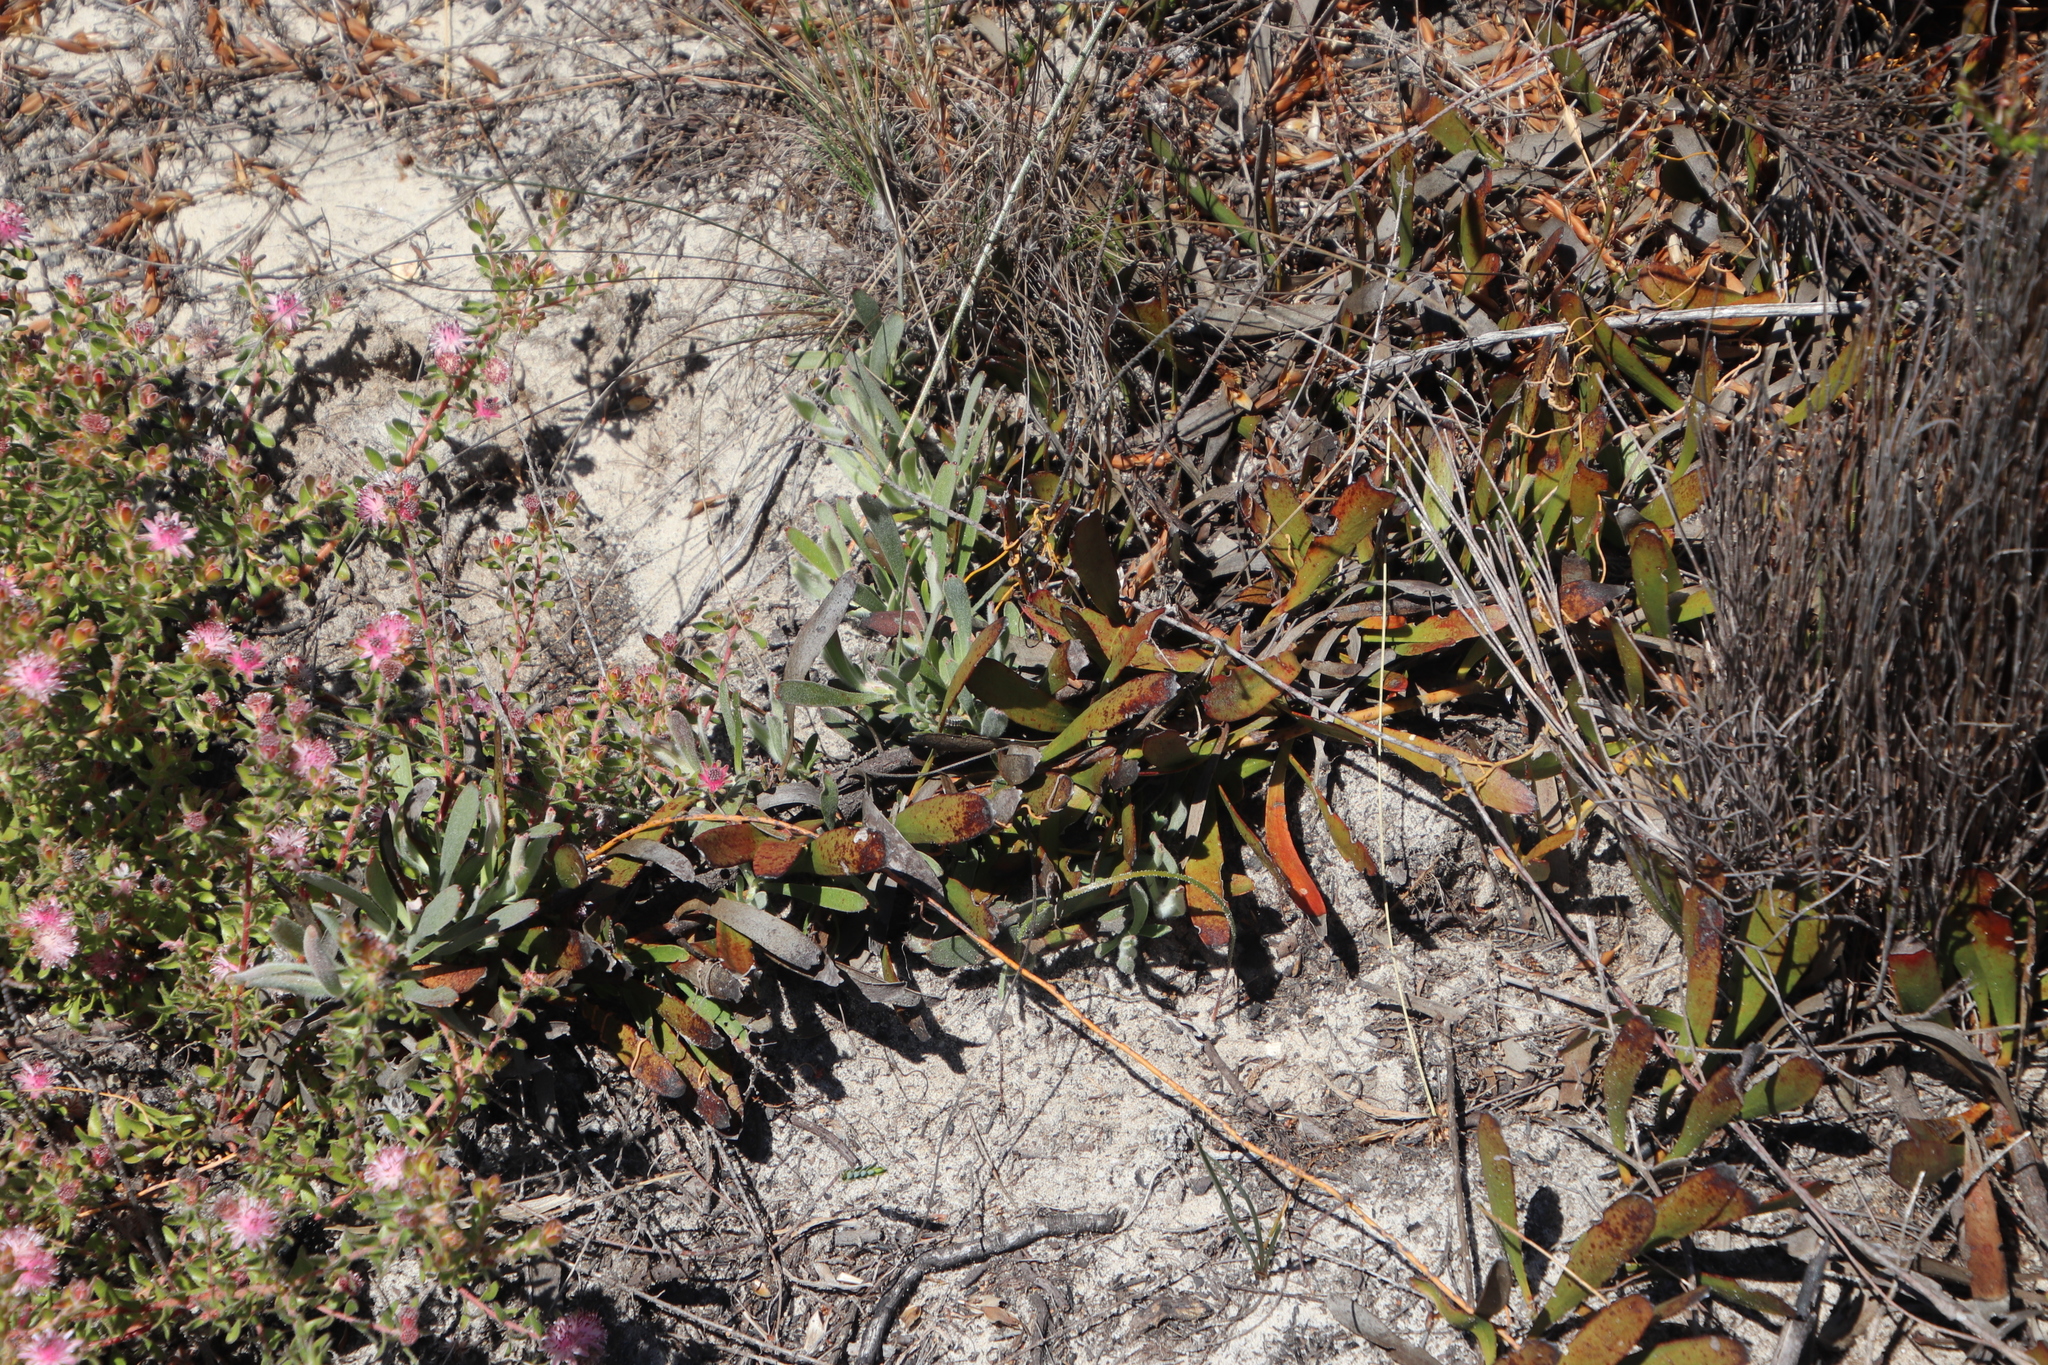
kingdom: Plantae
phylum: Tracheophyta
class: Magnoliopsida
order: Proteales
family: Proteaceae
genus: Leucospermum
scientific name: Leucospermum hypophyllocarpodendron
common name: Snakestem pincushion
